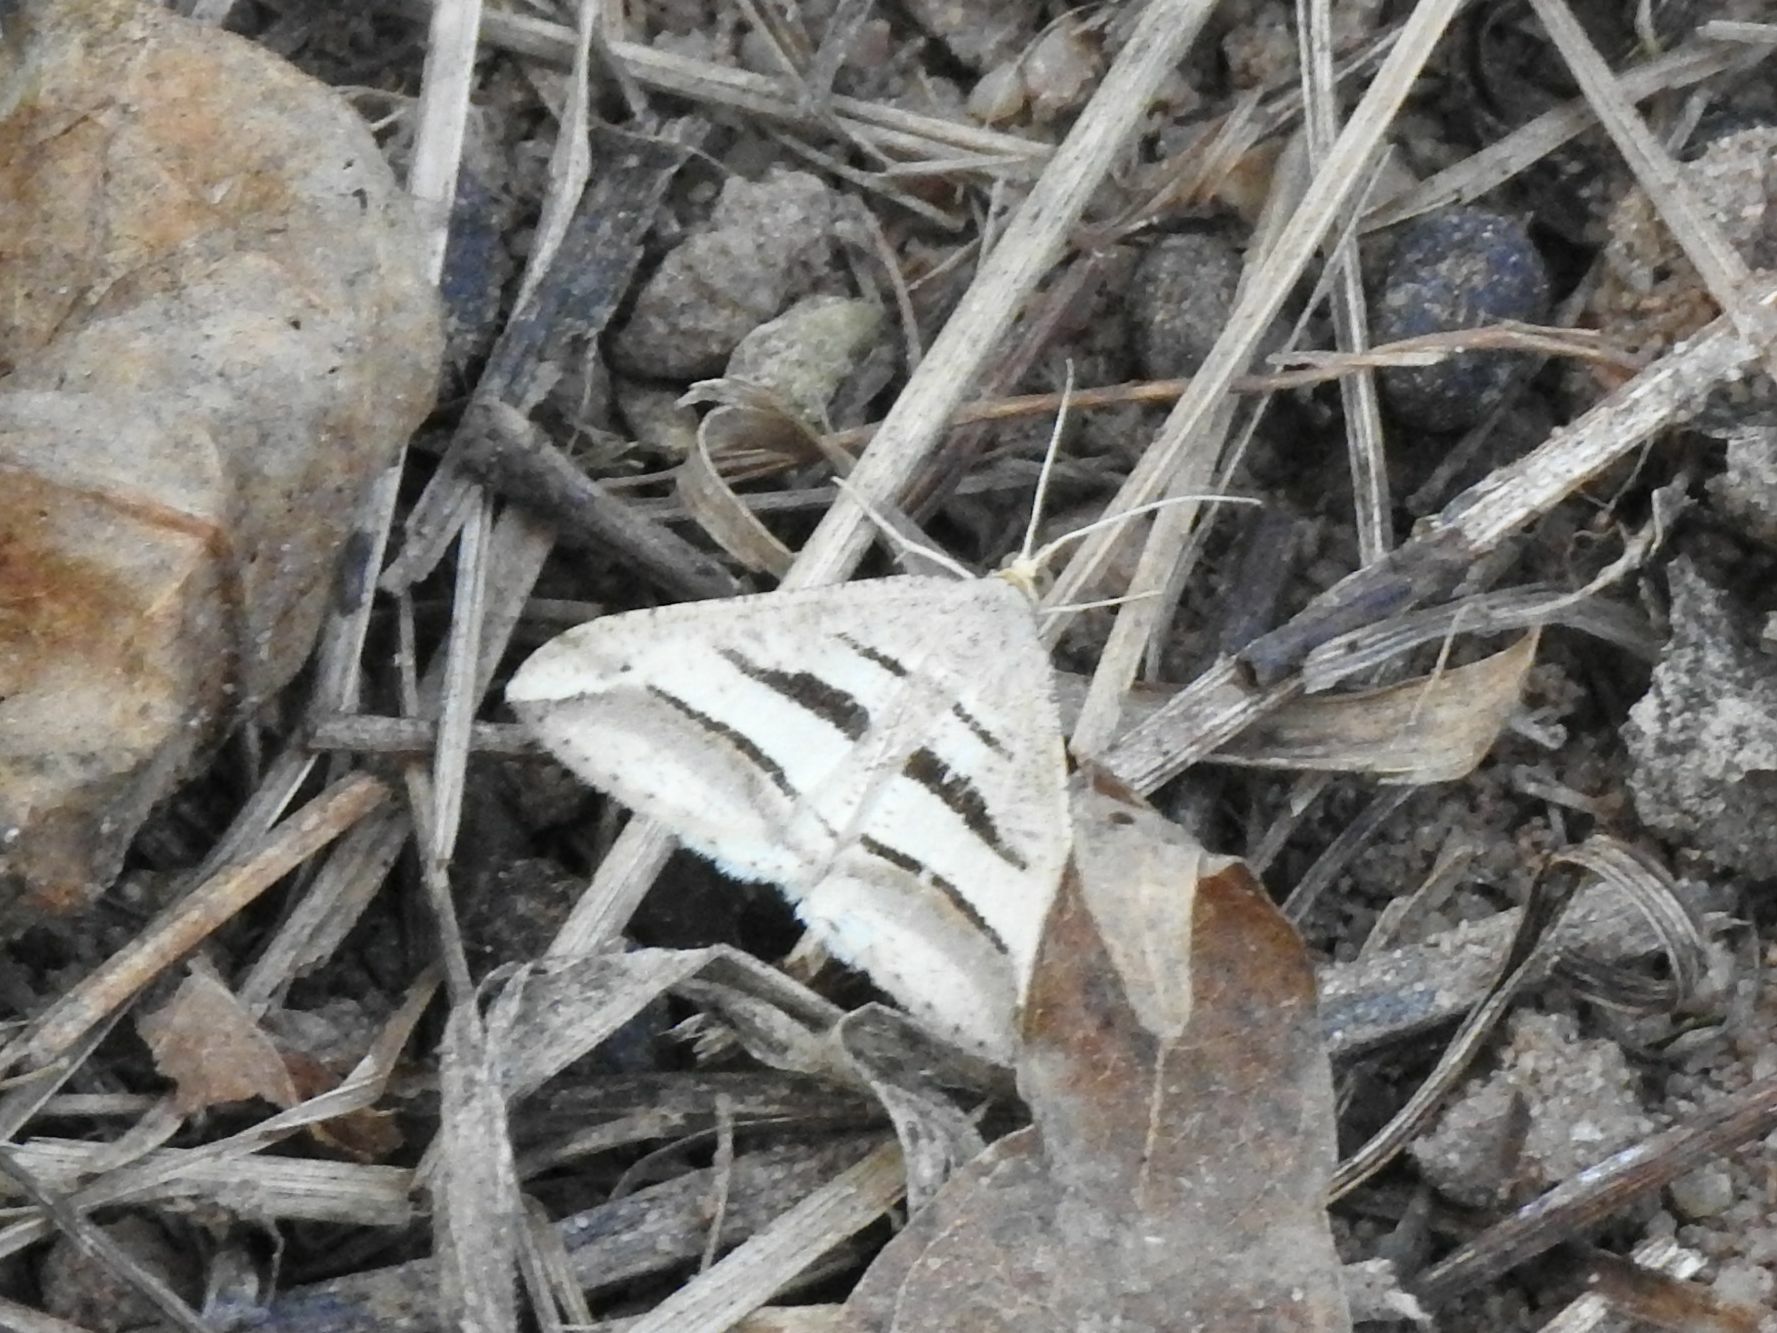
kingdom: Animalia
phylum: Arthropoda
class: Insecta
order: Lepidoptera
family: Geometridae
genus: Chiasmia
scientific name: Chiasmia subcurvaria
